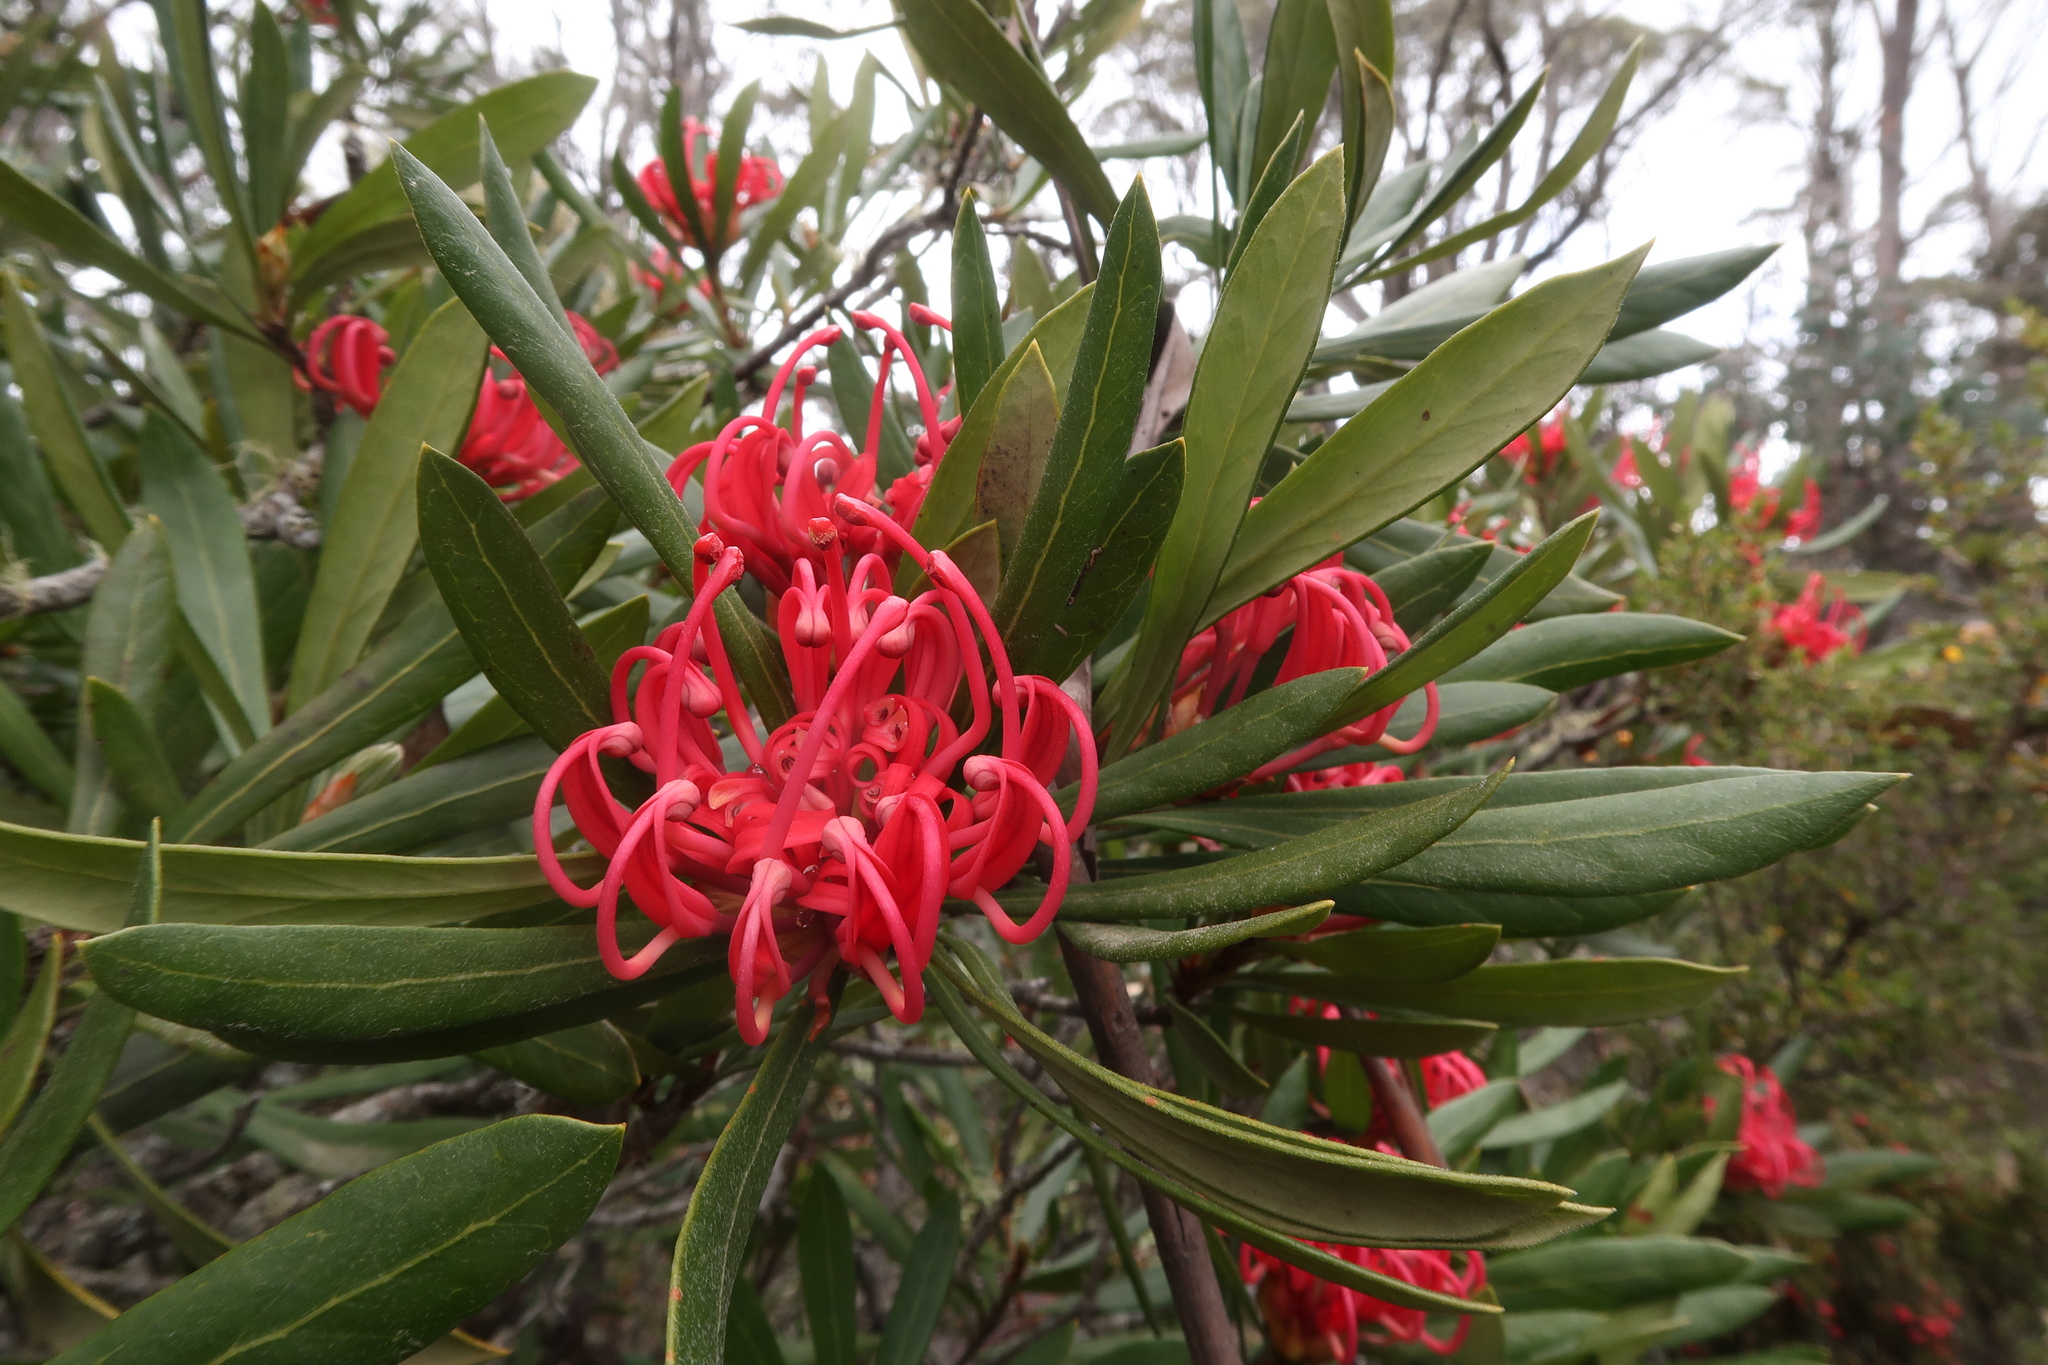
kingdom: Plantae
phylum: Tracheophyta
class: Magnoliopsida
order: Proteales
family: Proteaceae
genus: Telopea
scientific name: Telopea truncata
